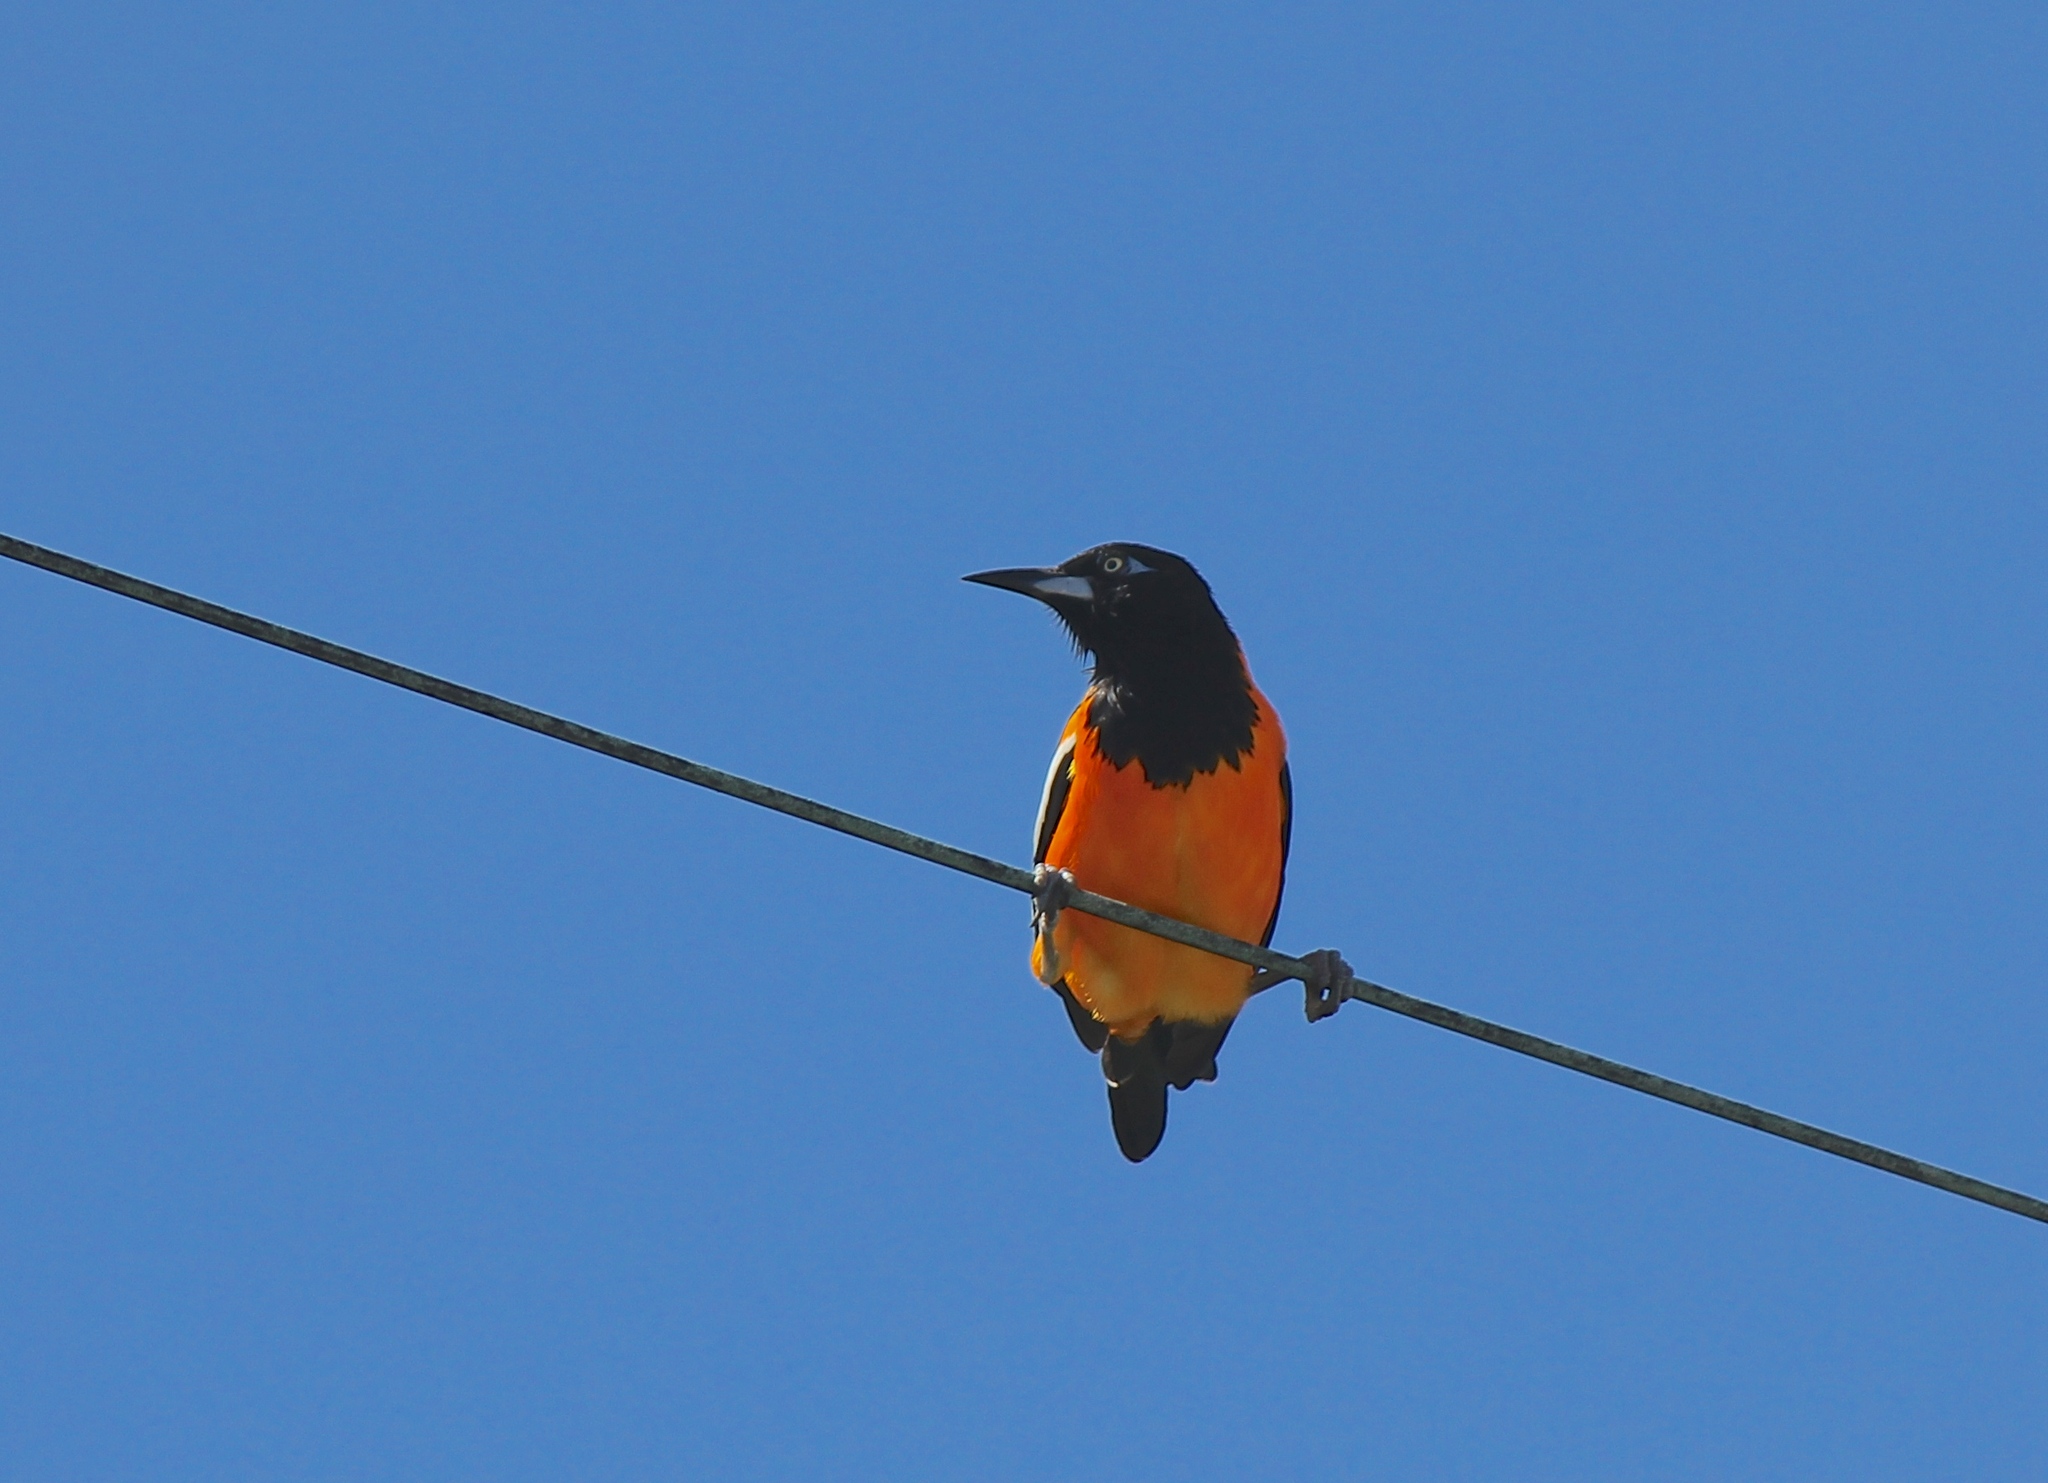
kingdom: Animalia
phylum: Chordata
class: Aves
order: Passeriformes
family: Icteridae
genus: Icterus
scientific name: Icterus icterus
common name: Venezuelan troupial
